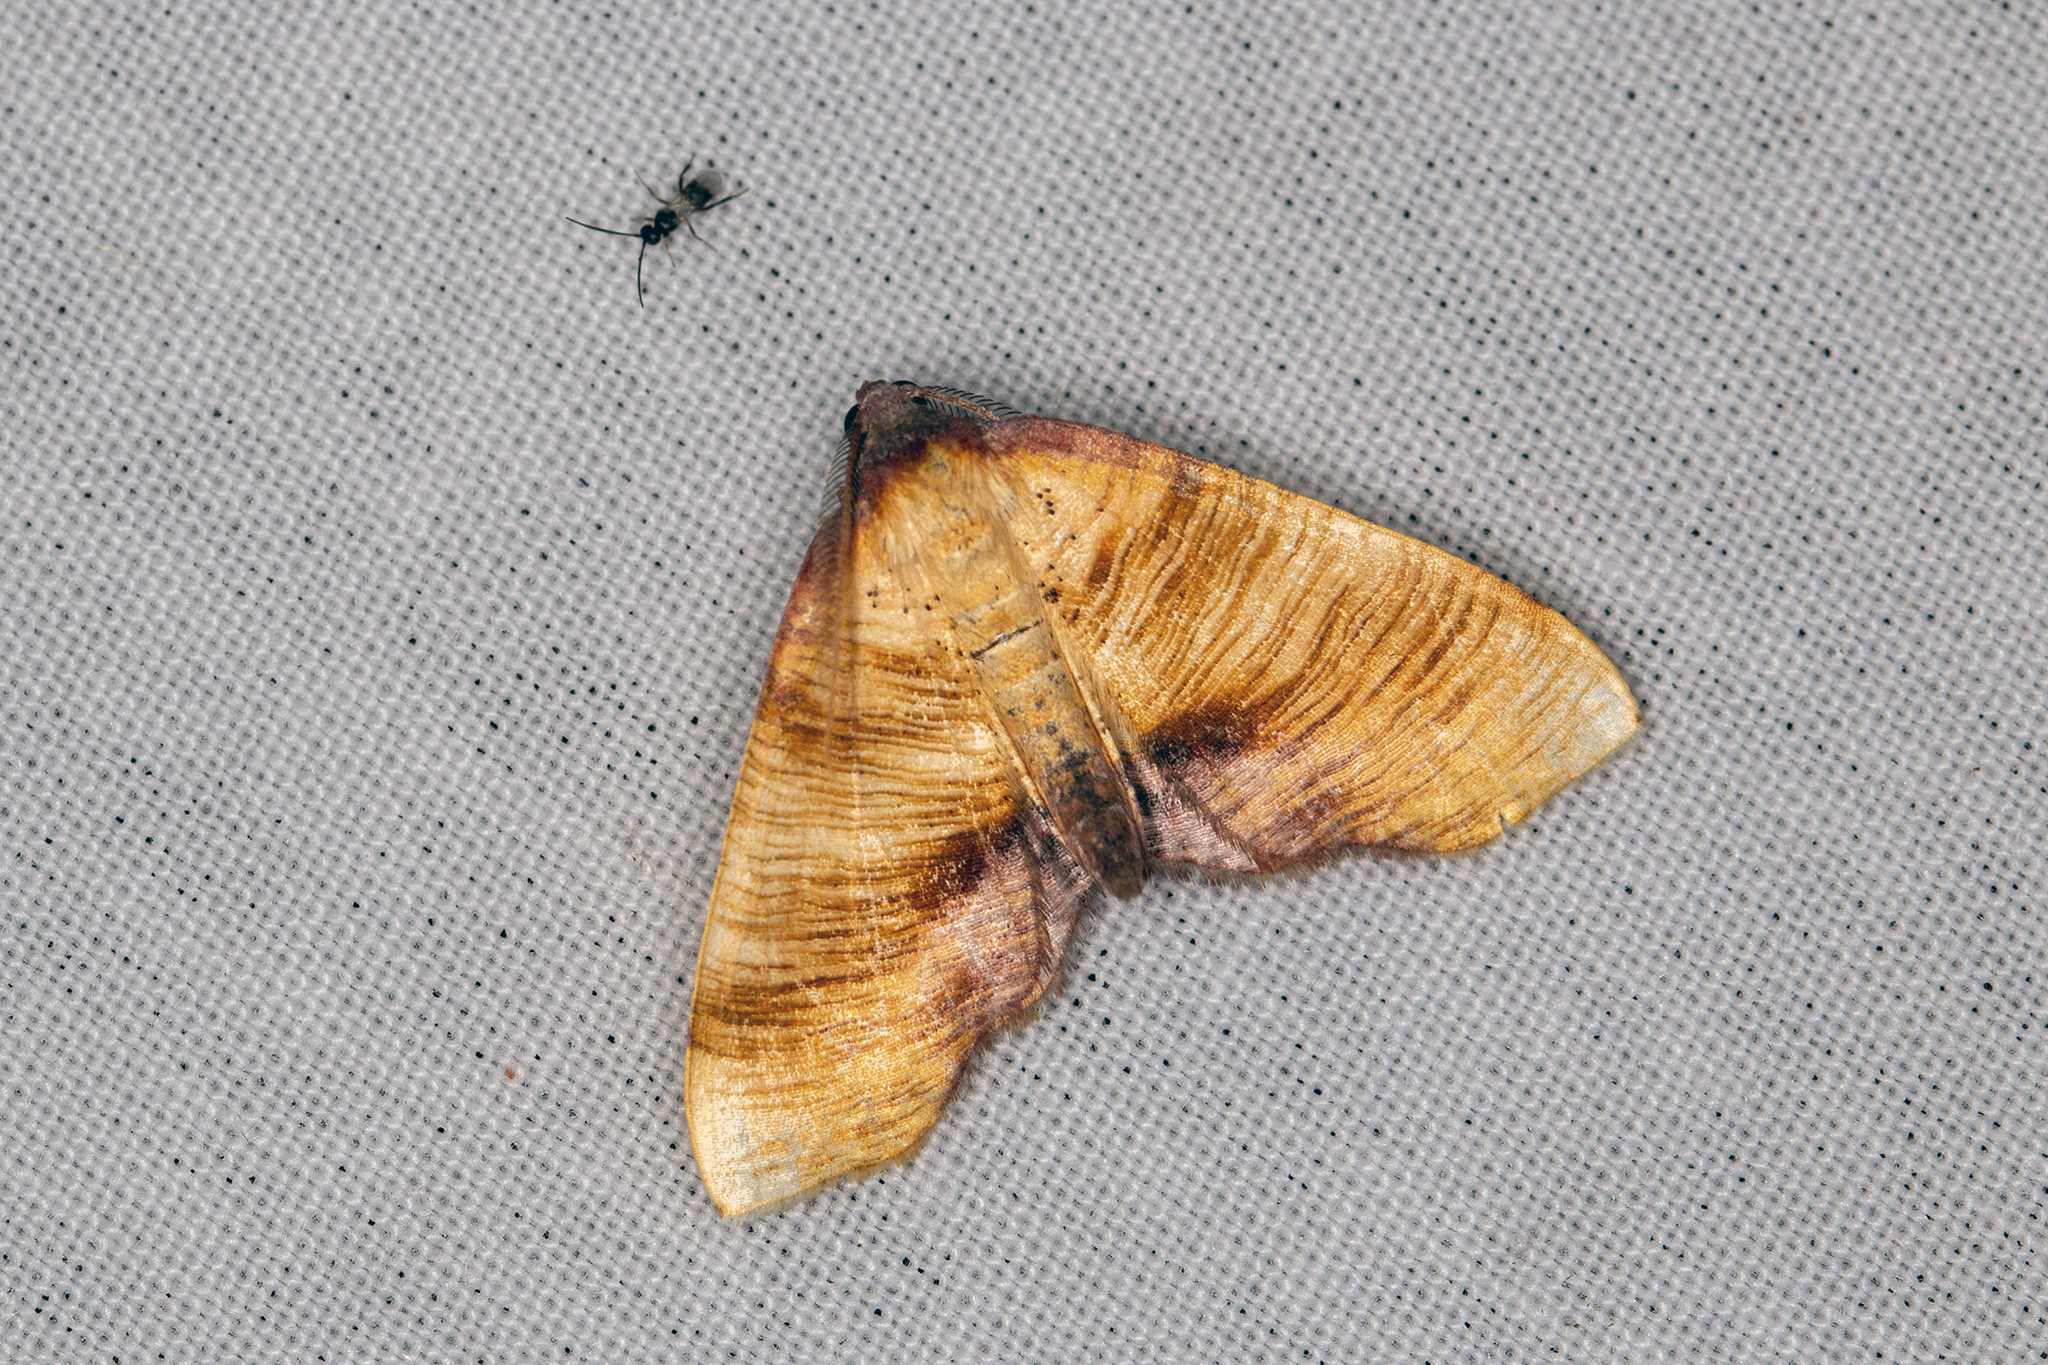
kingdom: Animalia
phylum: Arthropoda
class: Insecta
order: Lepidoptera
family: Geometridae
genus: Plagodis
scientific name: Plagodis dolabraria
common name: Scorched wing
